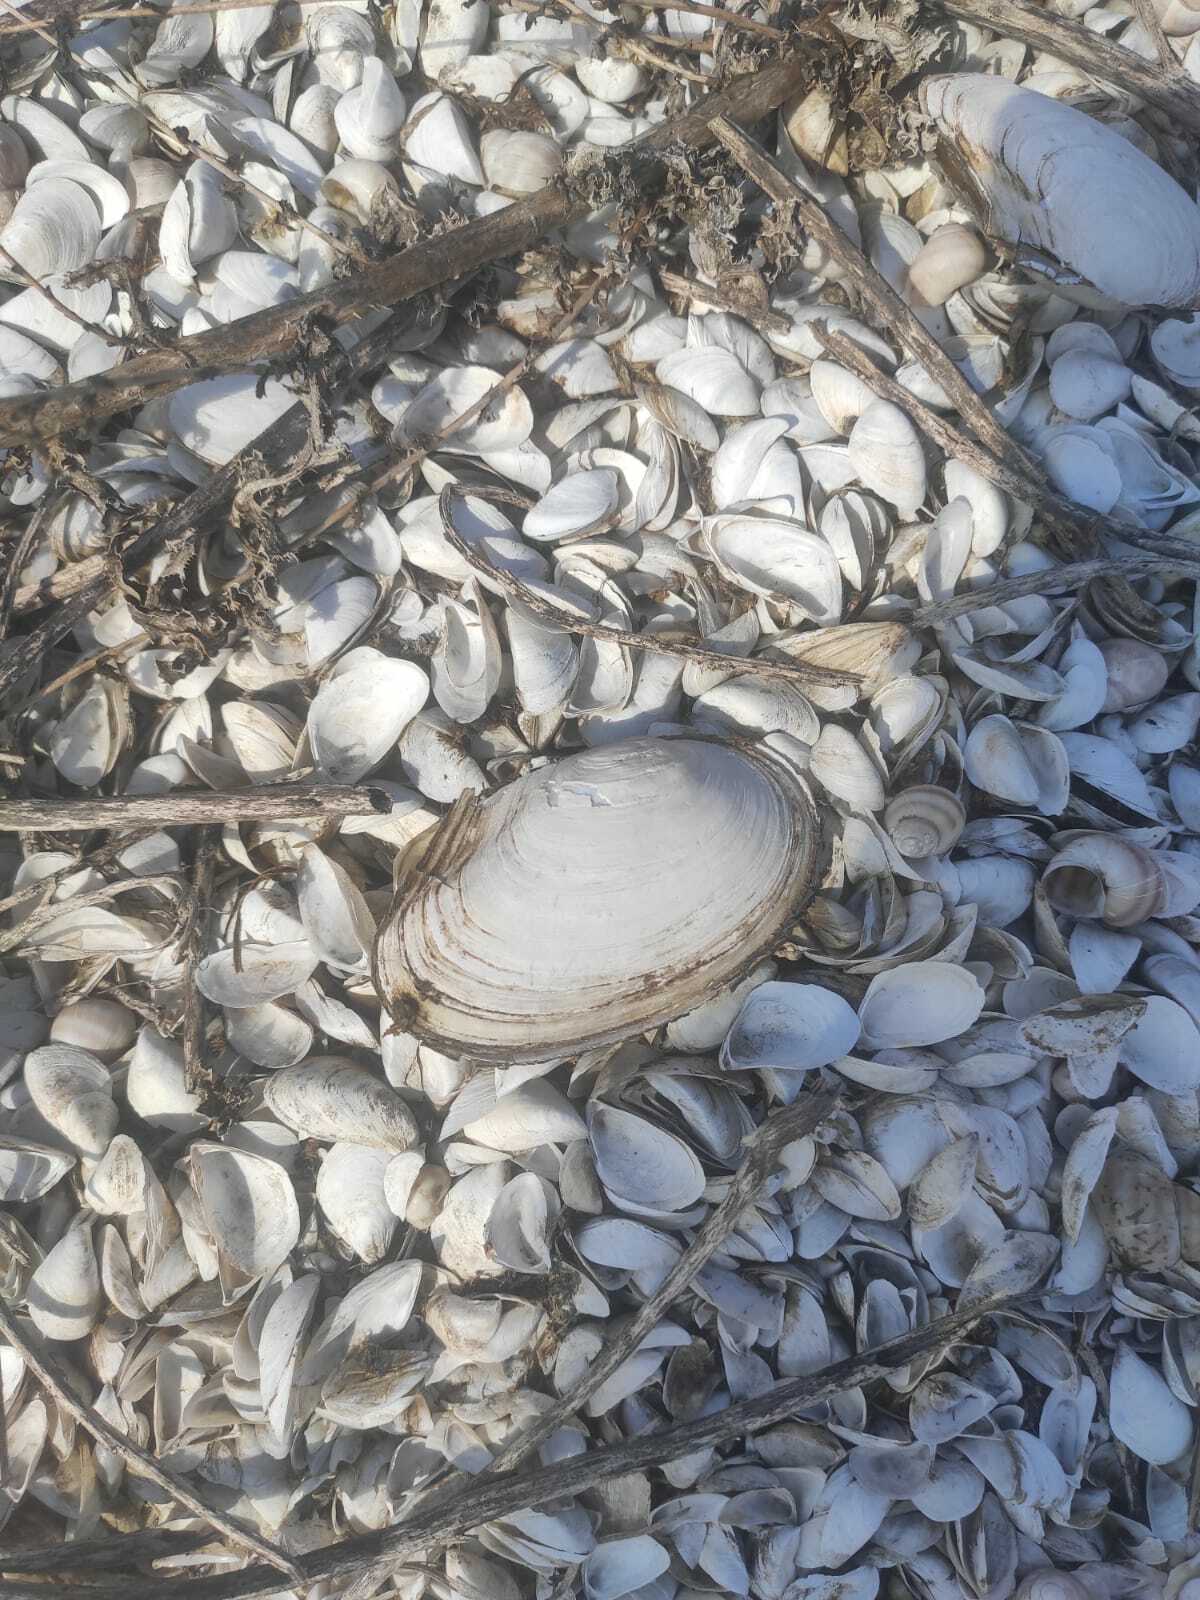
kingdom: Animalia
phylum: Mollusca
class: Bivalvia
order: Unionida
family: Unionidae
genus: Anodonta
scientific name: Anodonta anatina
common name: Duck mussel
